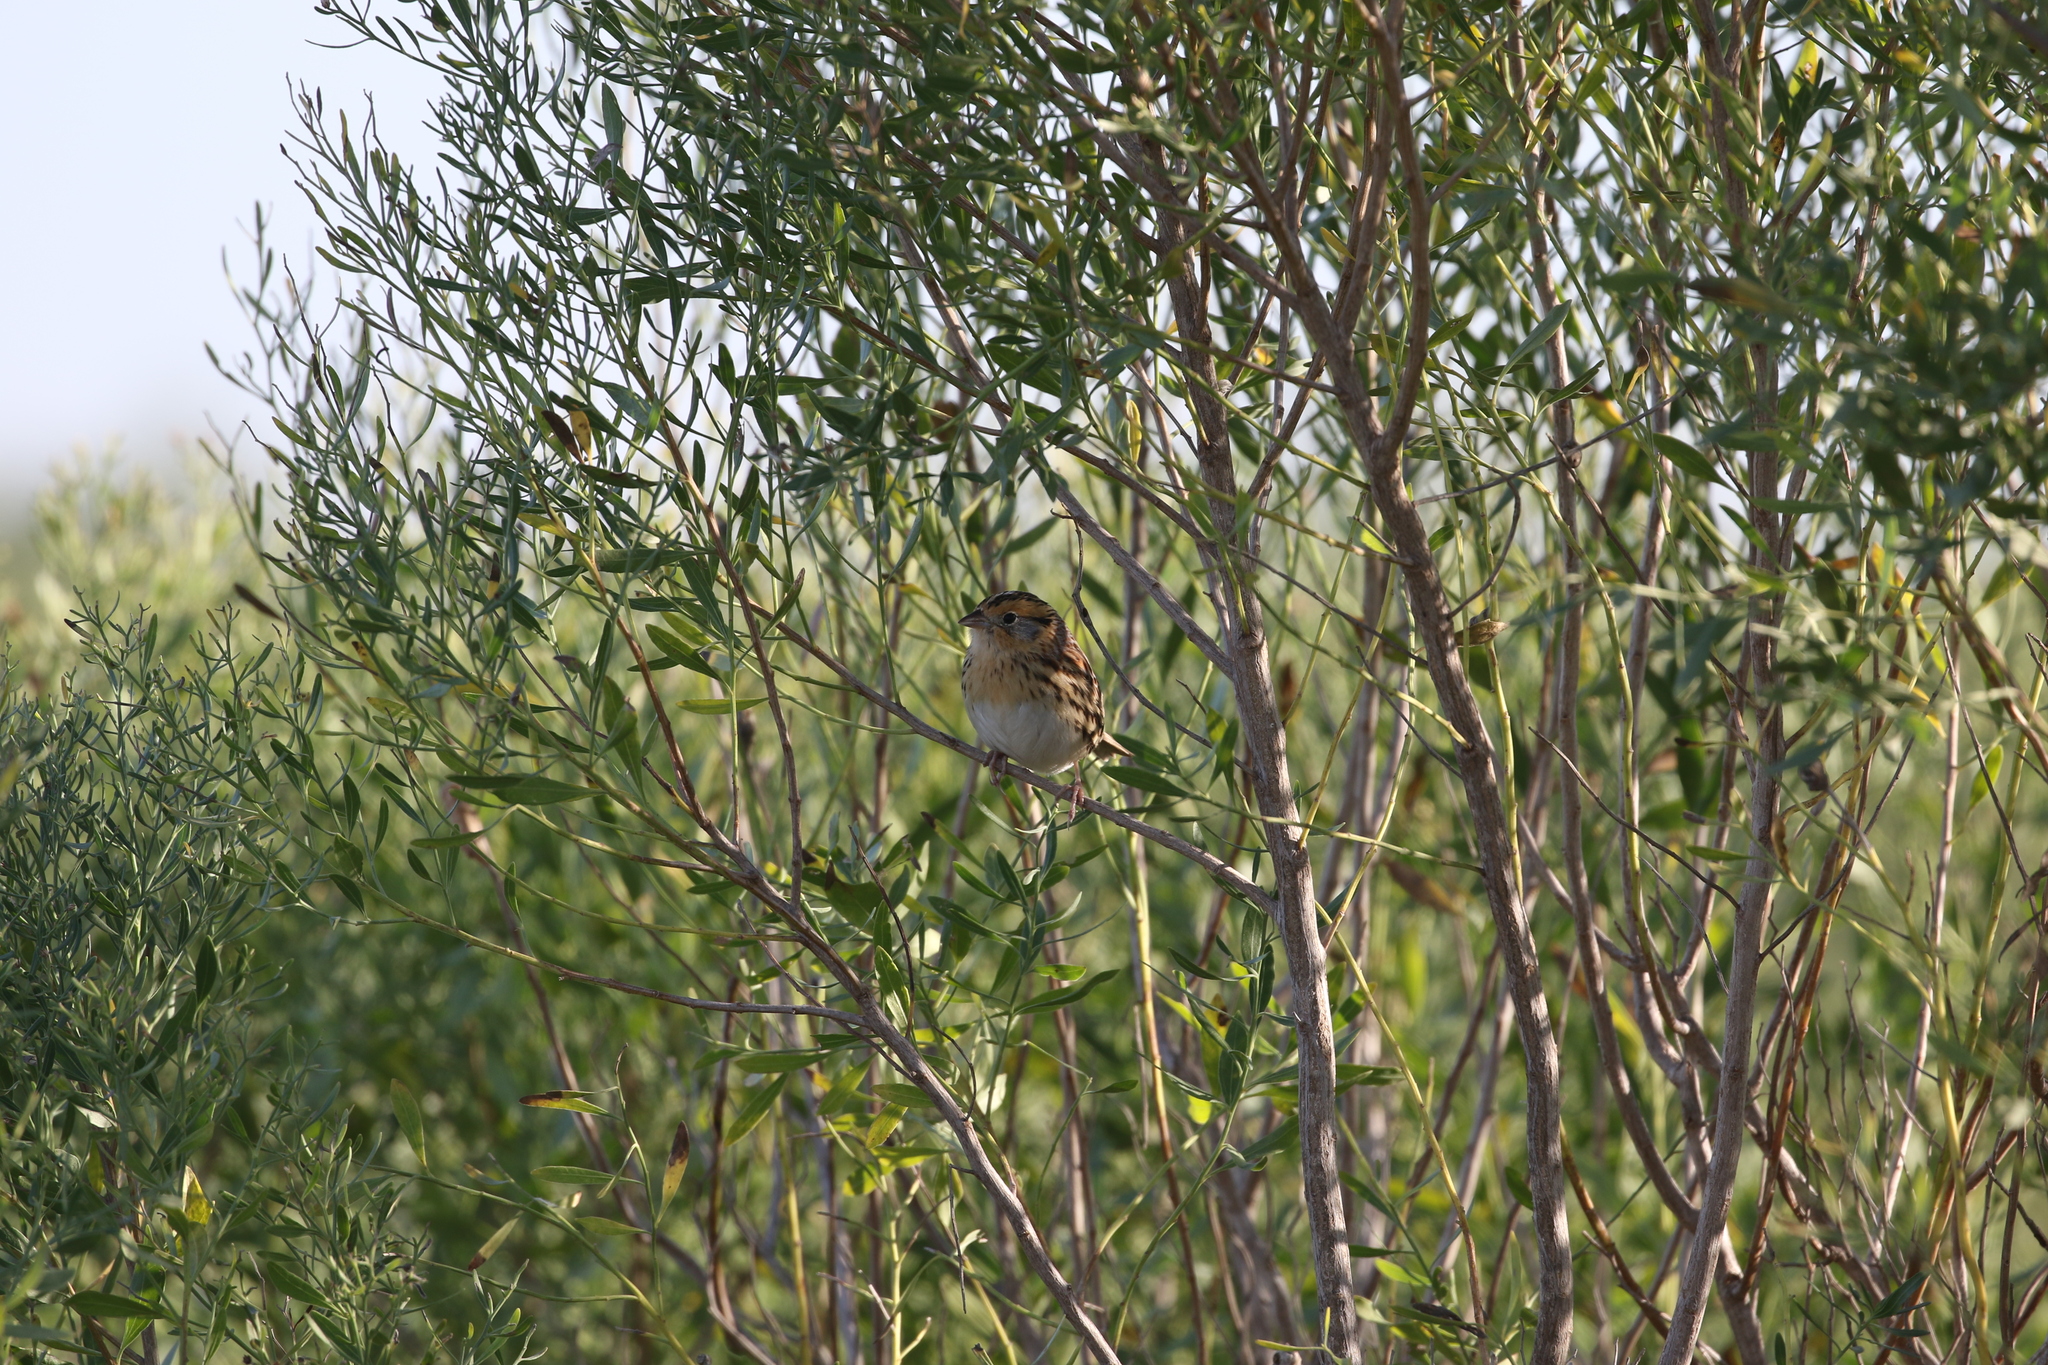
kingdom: Animalia
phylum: Chordata
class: Aves
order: Passeriformes
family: Passerellidae
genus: Ammospiza
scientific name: Ammospiza leconteii
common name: Le conte's sparrow
